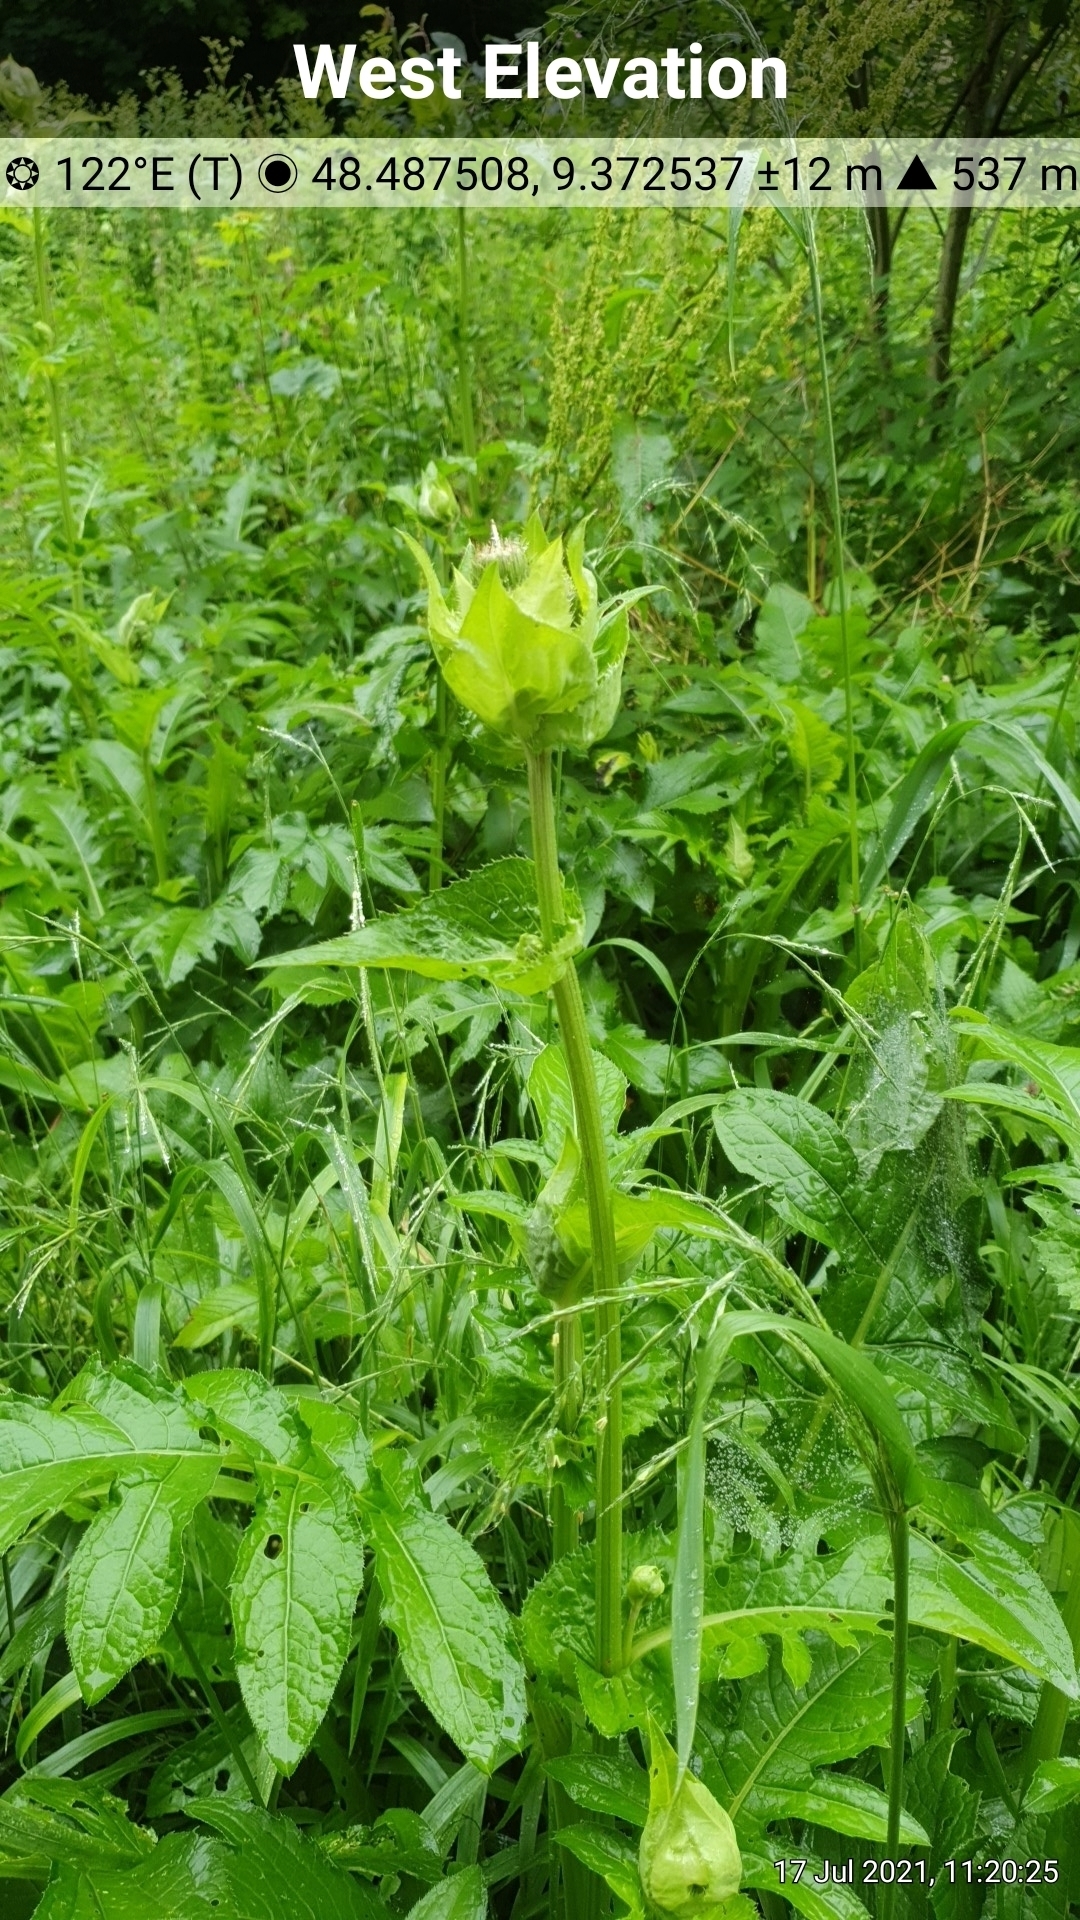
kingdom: Plantae
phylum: Tracheophyta
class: Magnoliopsida
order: Asterales
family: Asteraceae
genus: Cirsium
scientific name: Cirsium oleraceum
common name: Cabbage thistle
